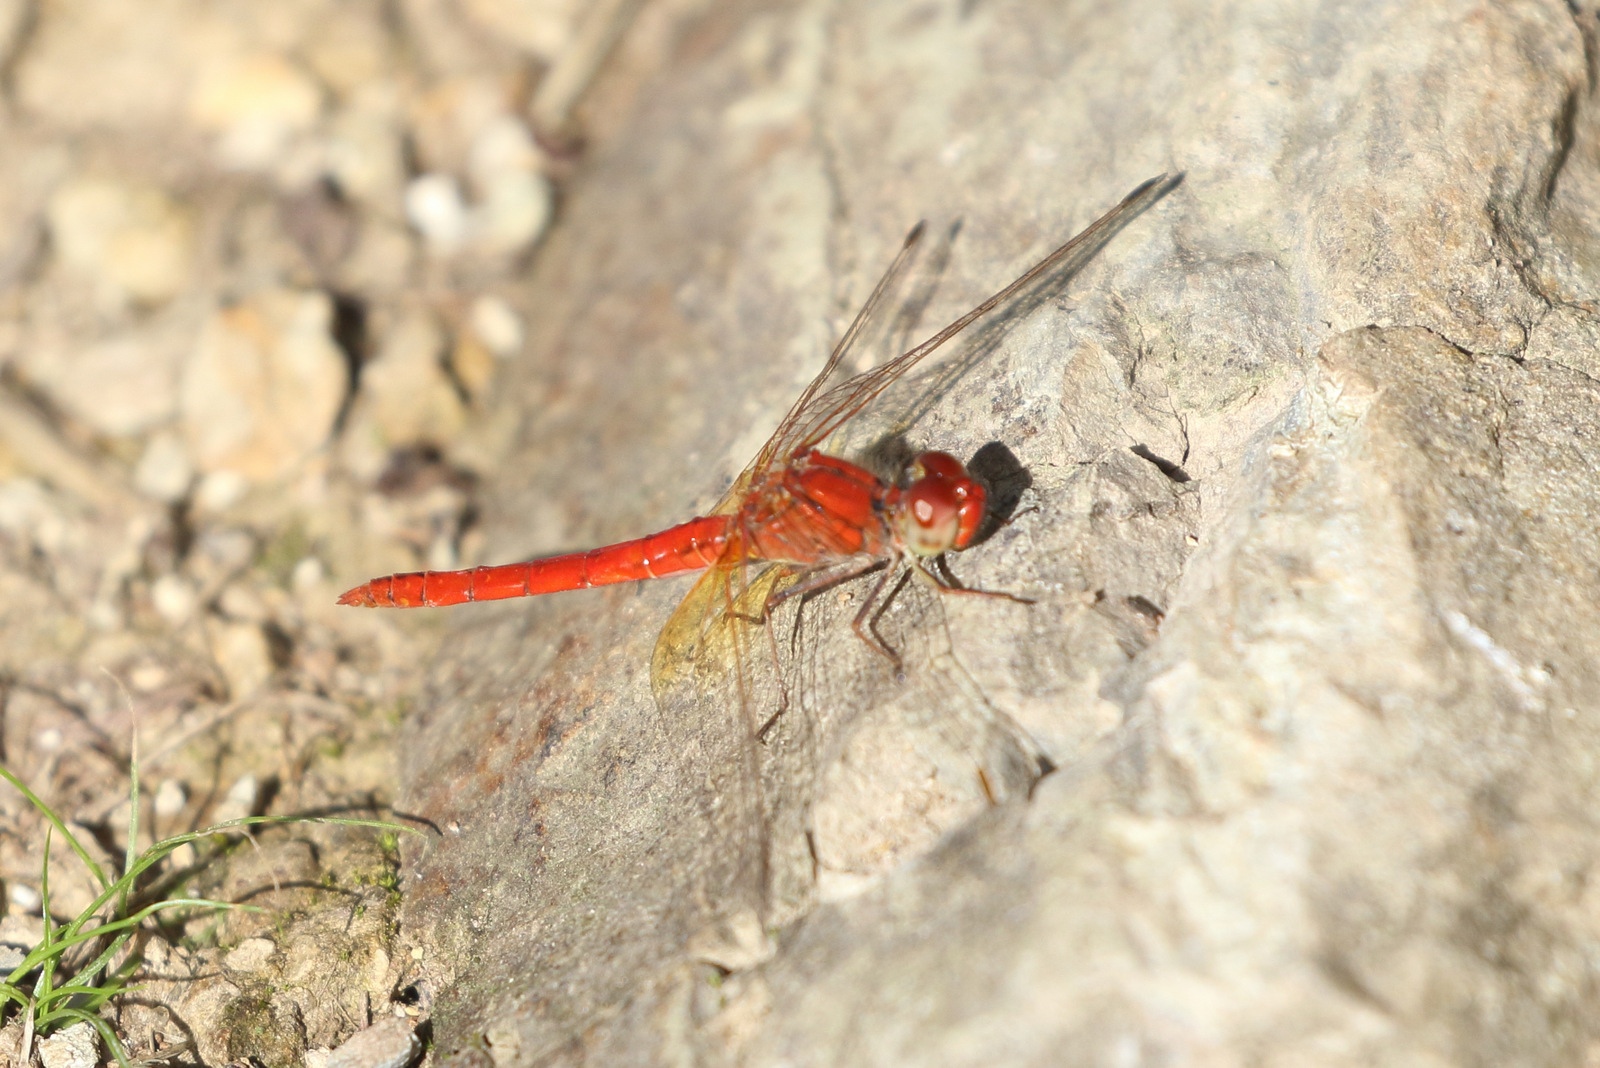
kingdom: Animalia
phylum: Arthropoda
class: Insecta
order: Odonata
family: Libellulidae
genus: Diplacodes
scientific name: Diplacodes haematodes
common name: Scarlet percher
